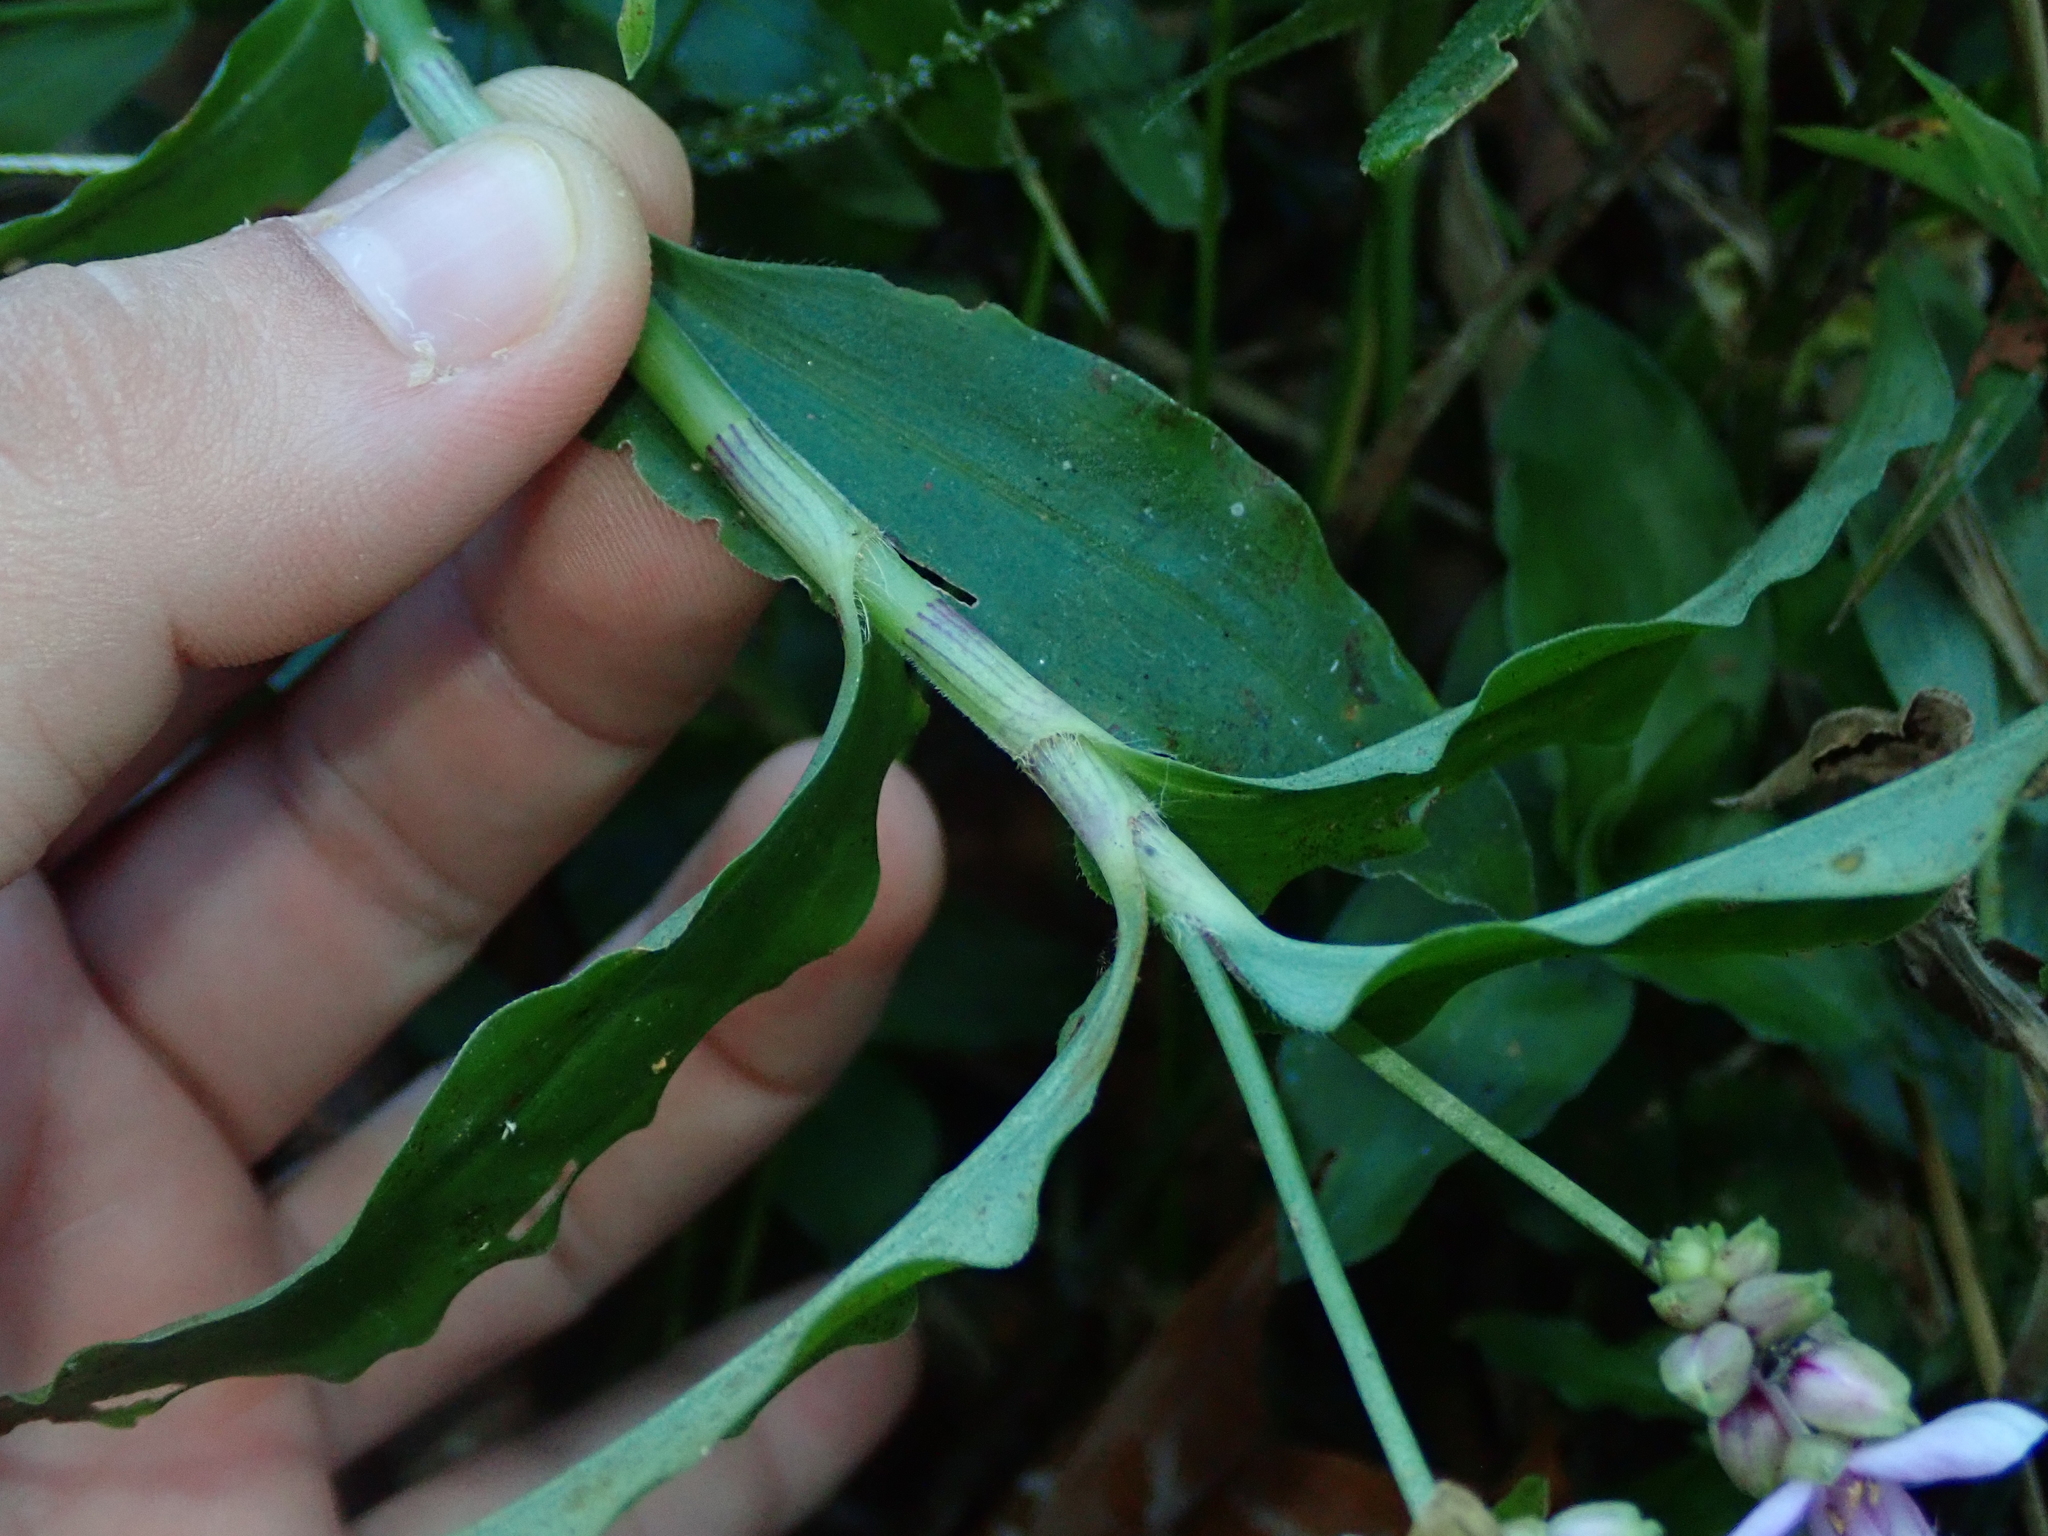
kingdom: Plantae
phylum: Tracheophyta
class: Liliopsida
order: Commelinales
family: Commelinaceae
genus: Callisia
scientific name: Callisia diuretica
